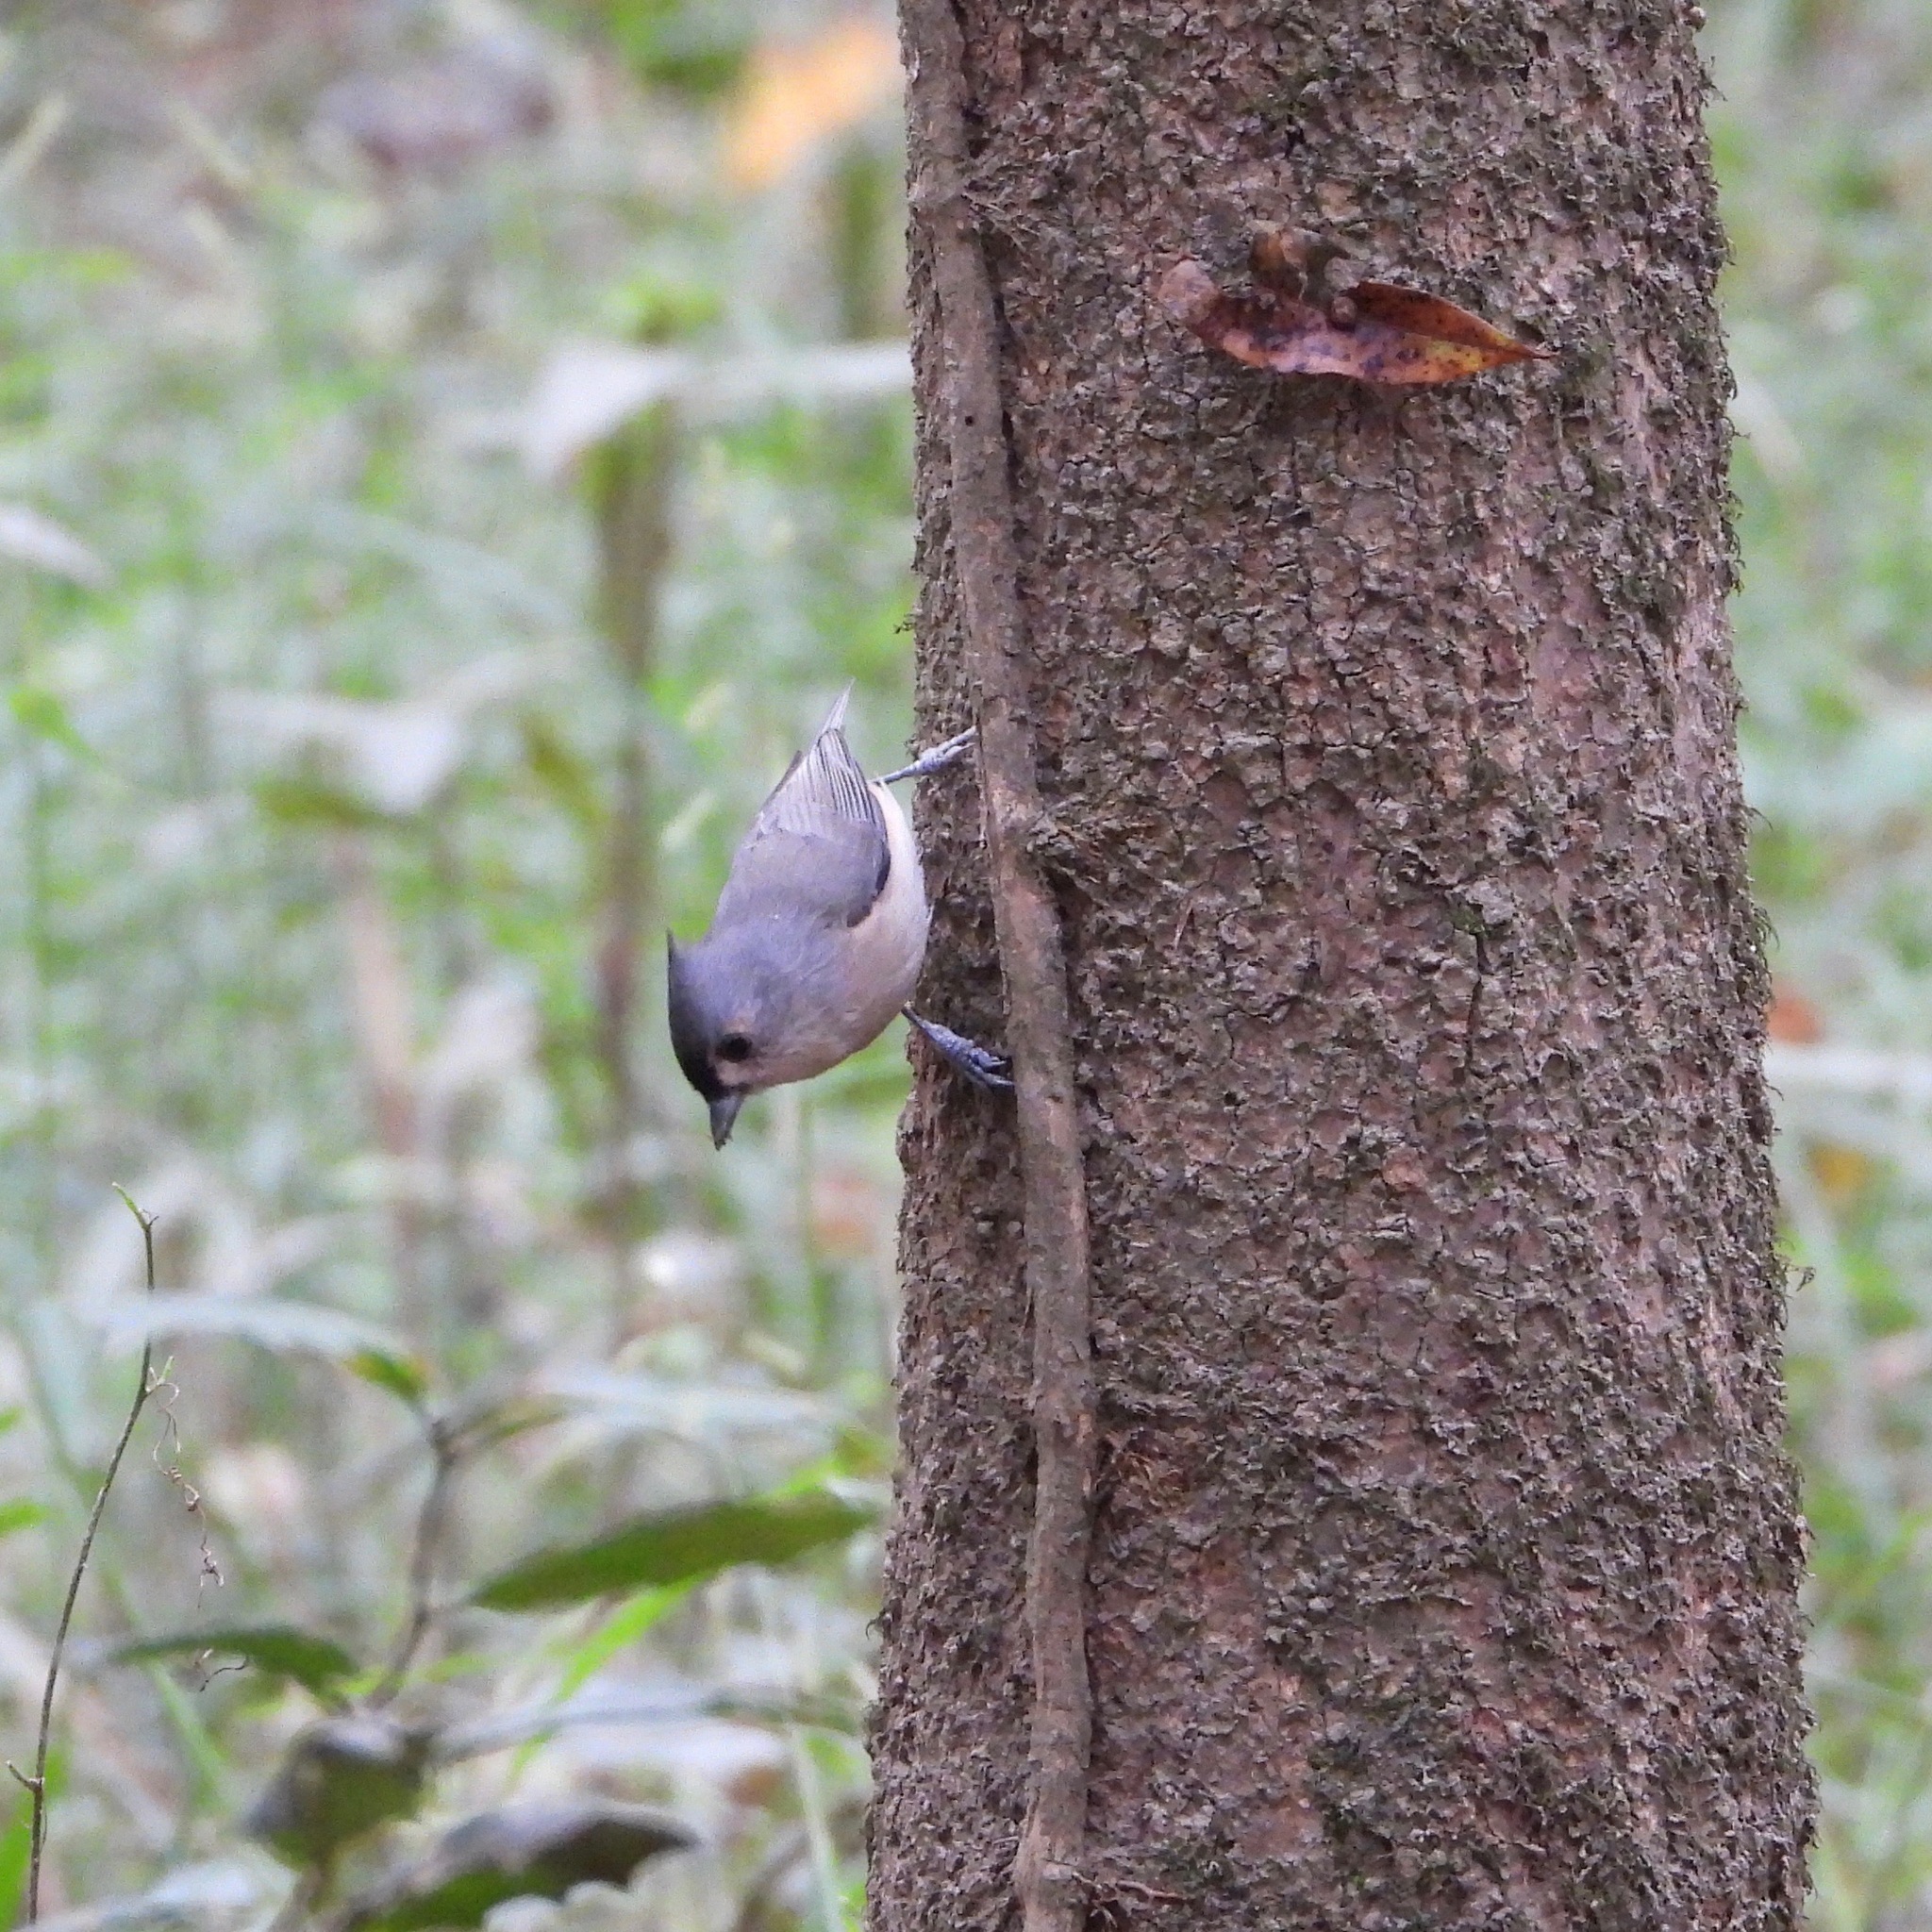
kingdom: Animalia
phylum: Chordata
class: Aves
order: Passeriformes
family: Paridae
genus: Baeolophus
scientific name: Baeolophus bicolor
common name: Tufted titmouse
